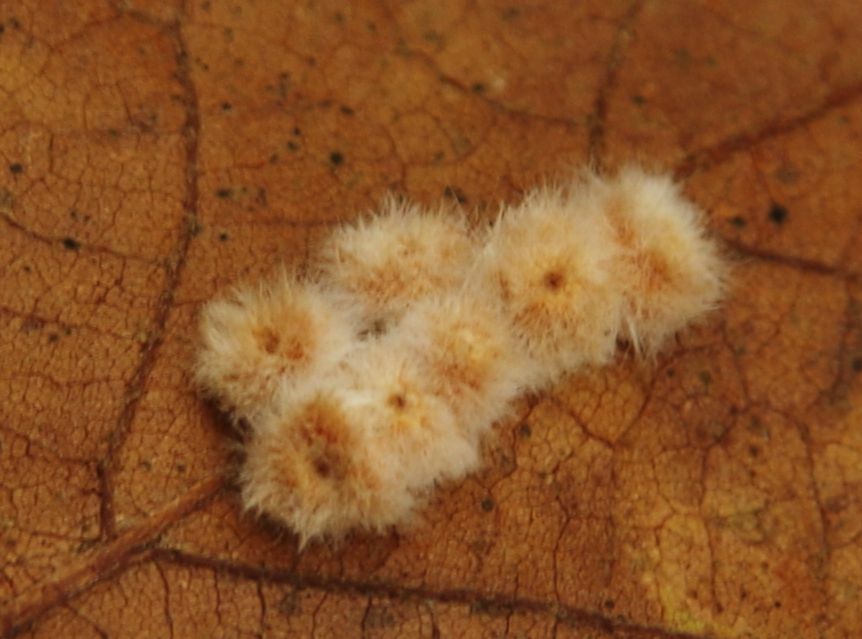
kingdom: Animalia
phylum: Arthropoda
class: Insecta
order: Hymenoptera
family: Cynipidae
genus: Neuroterus
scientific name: Neuroterus lanuginosus
